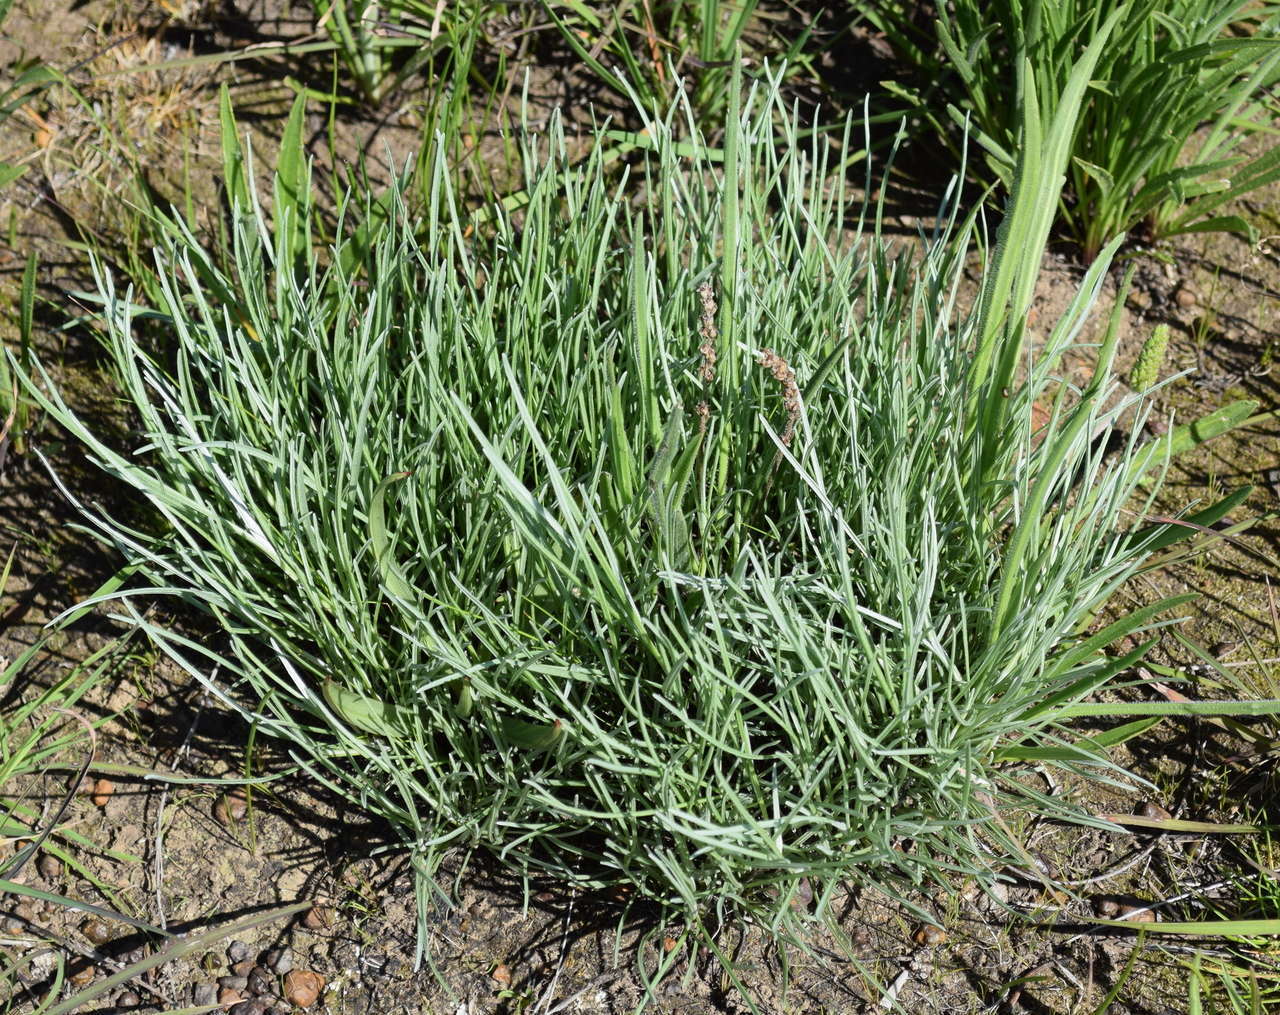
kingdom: Plantae
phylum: Tracheophyta
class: Magnoliopsida
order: Asterales
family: Asteraceae
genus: Leucochrysum
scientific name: Leucochrysum albicans
